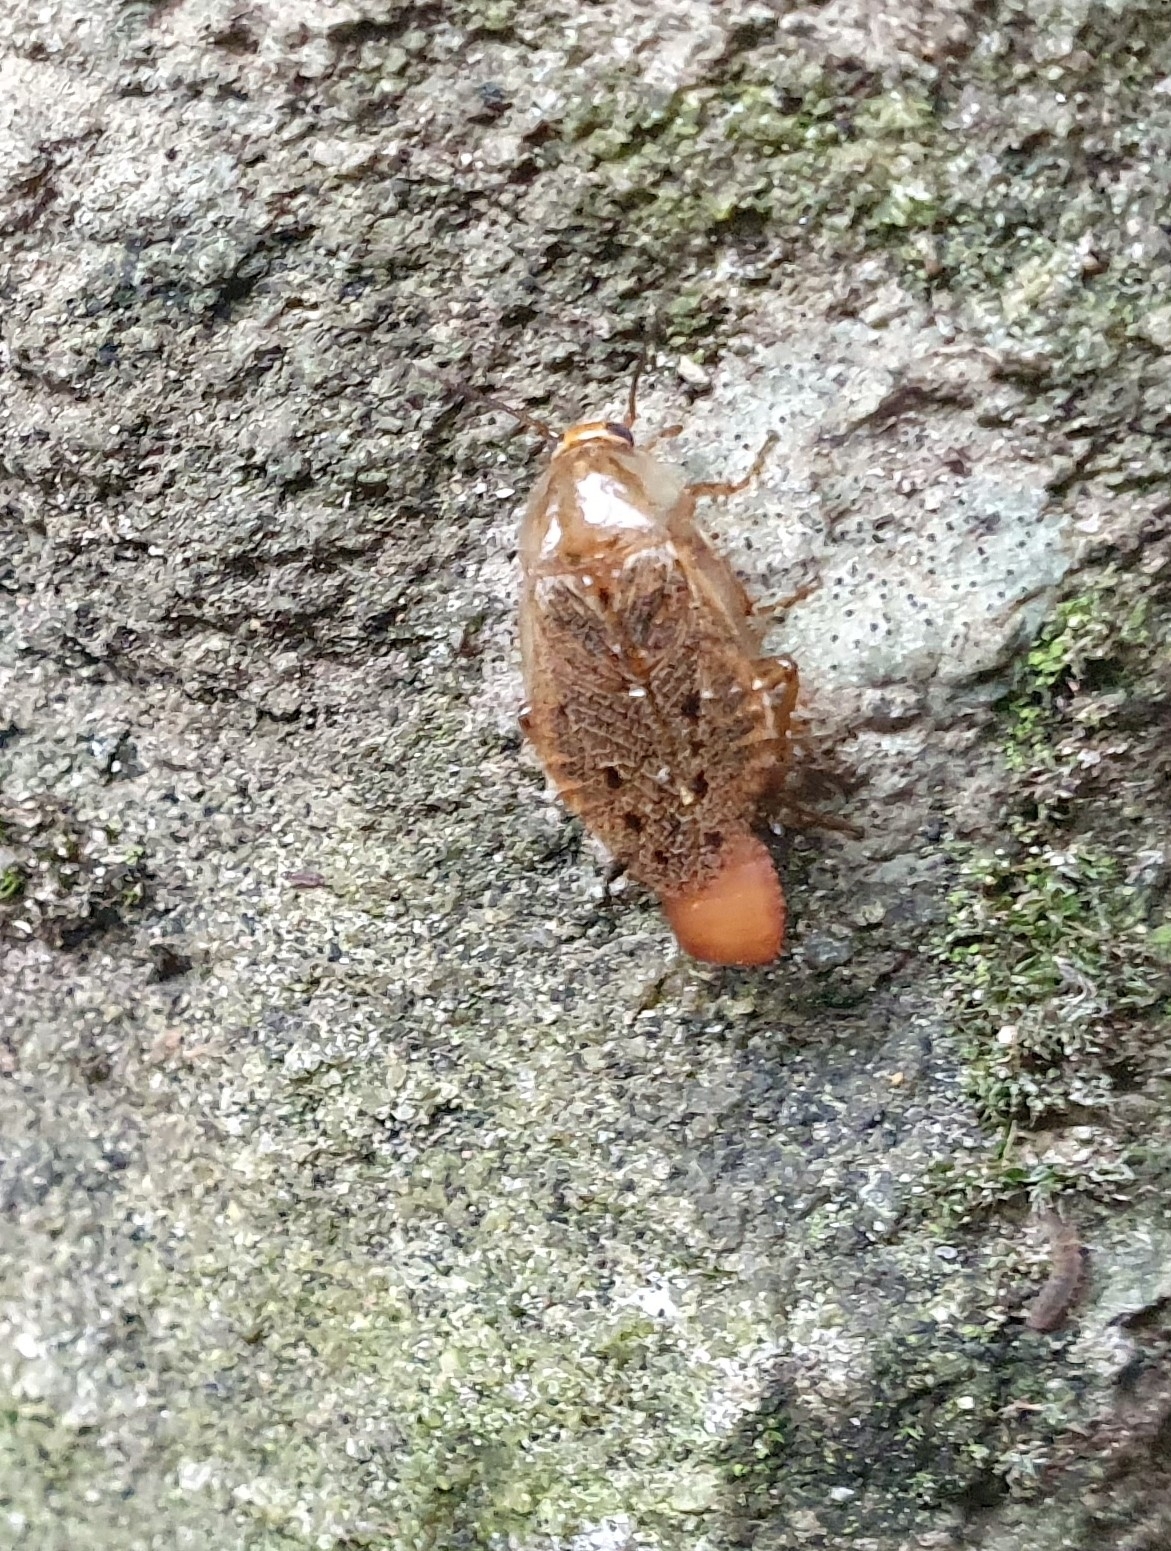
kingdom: Animalia
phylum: Arthropoda
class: Insecta
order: Blattodea
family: Ectobiidae
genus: Ectobius
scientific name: Ectobius lapponicus
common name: Dusky cockroach
